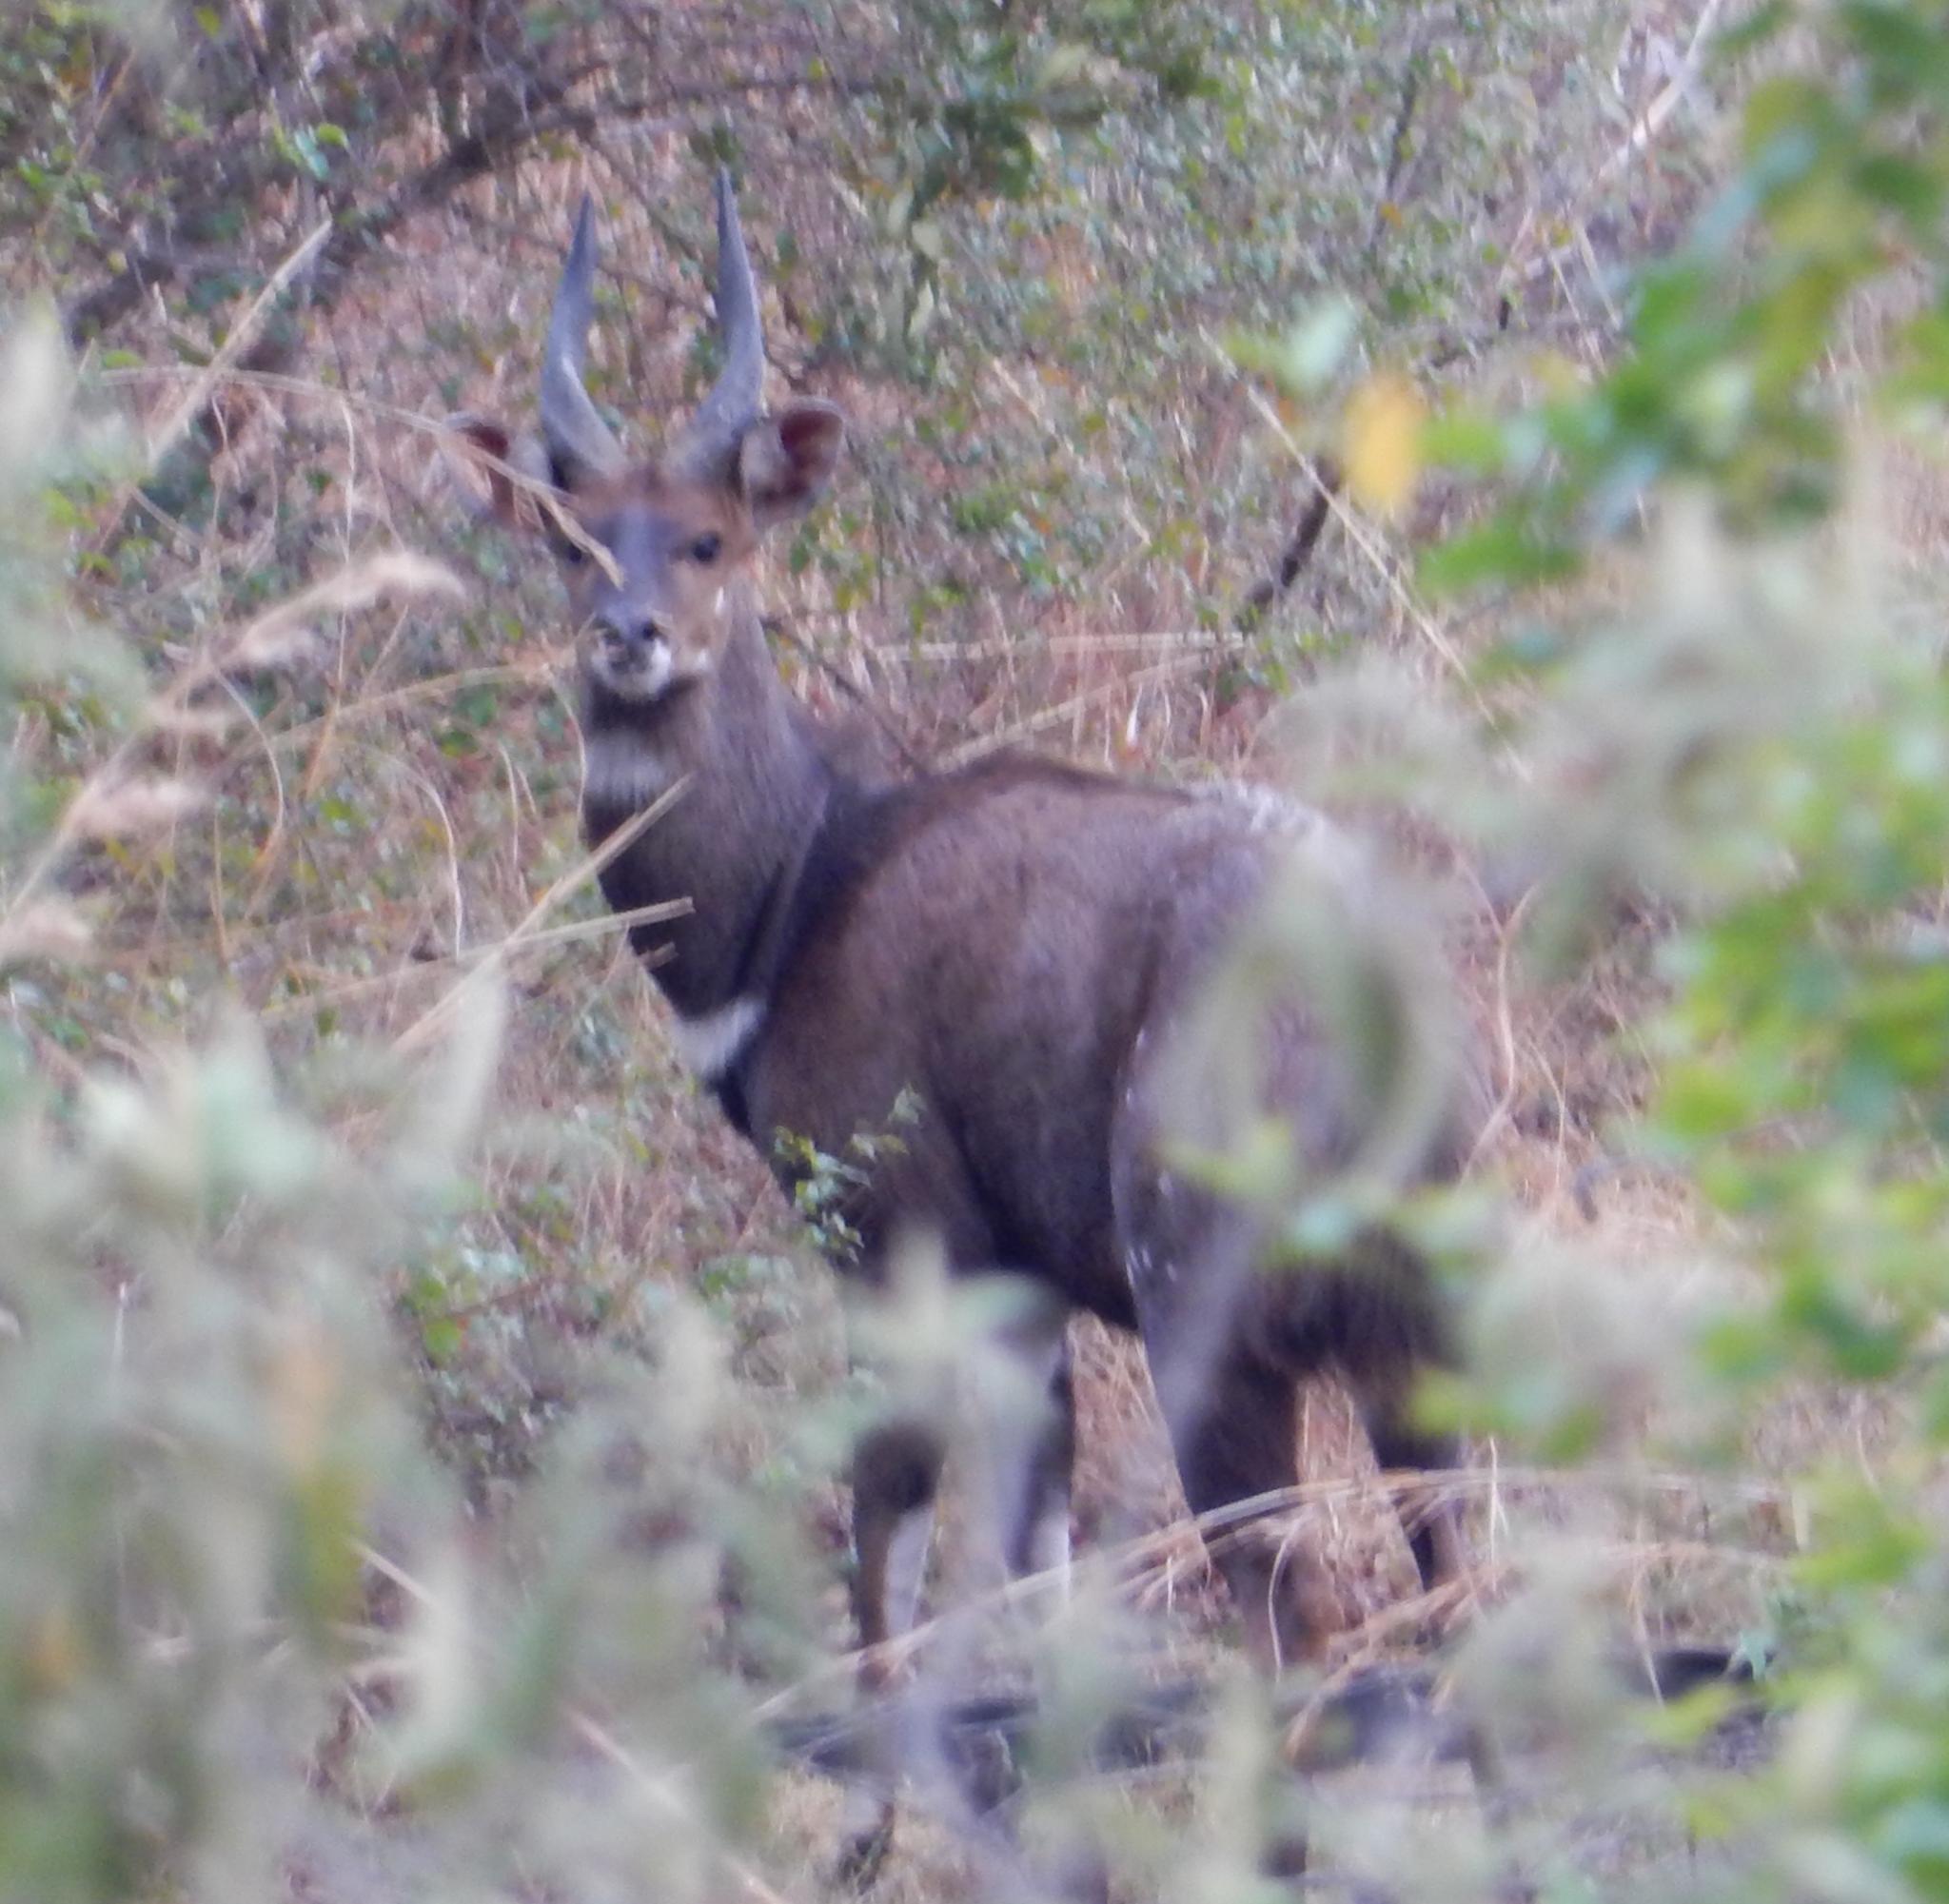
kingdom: Animalia
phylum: Chordata
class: Mammalia
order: Artiodactyla
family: Bovidae
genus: Tragelaphus
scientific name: Tragelaphus scriptus
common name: Bushbuck
